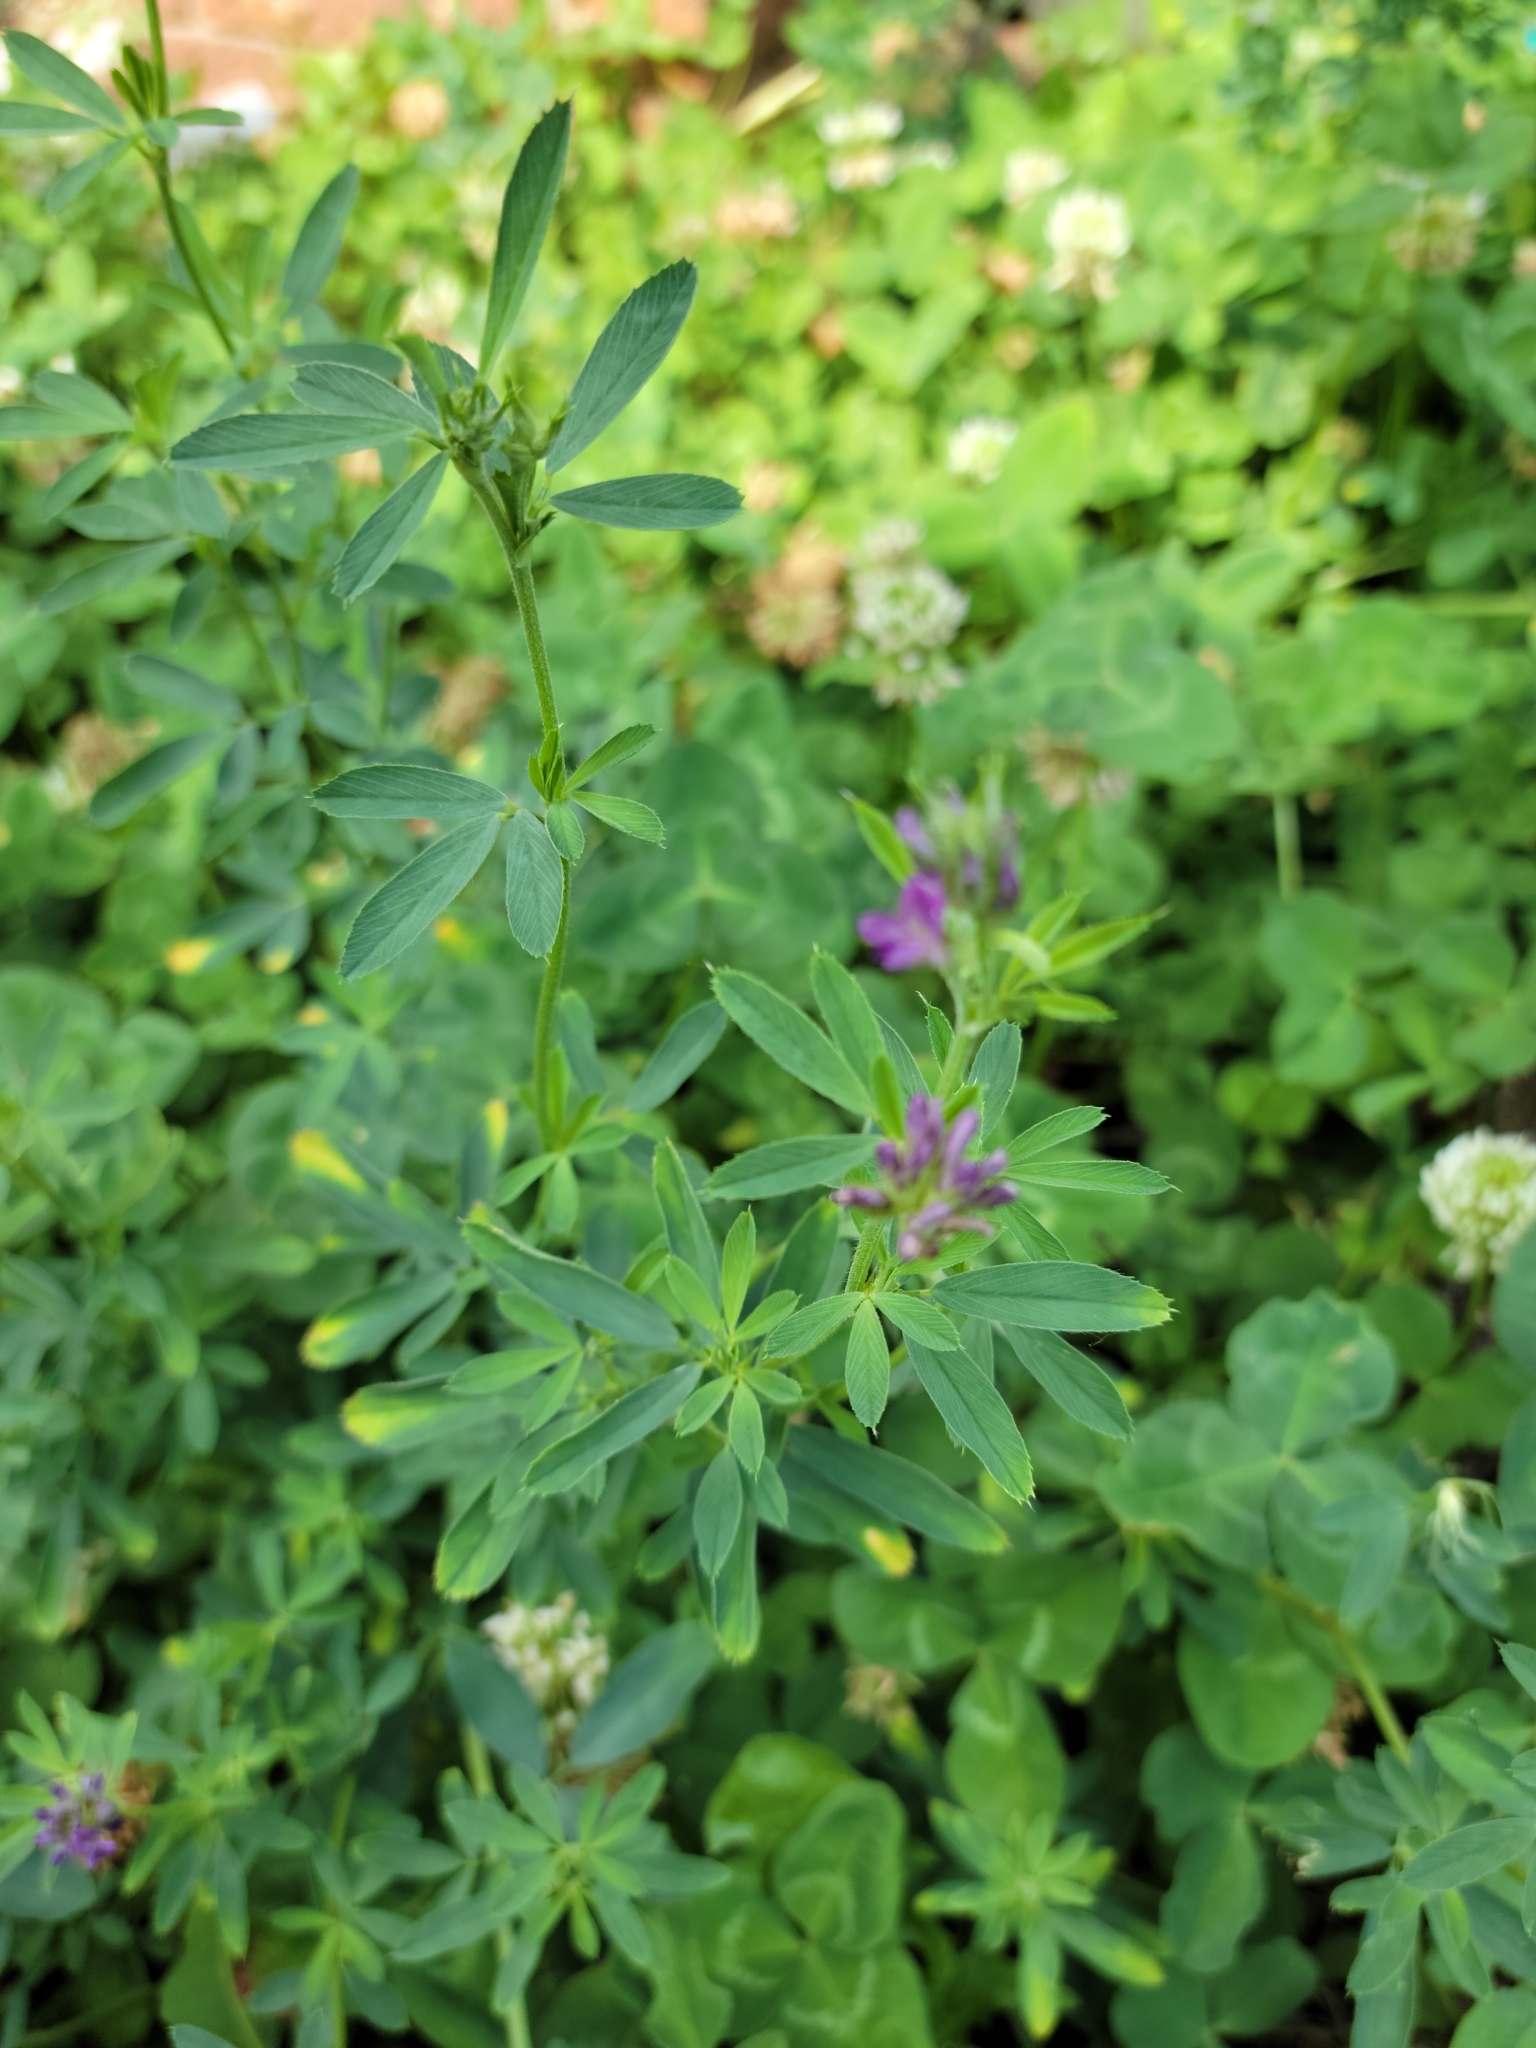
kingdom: Plantae
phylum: Tracheophyta
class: Magnoliopsida
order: Fabales
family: Fabaceae
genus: Medicago
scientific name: Medicago sativa
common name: Alfalfa
